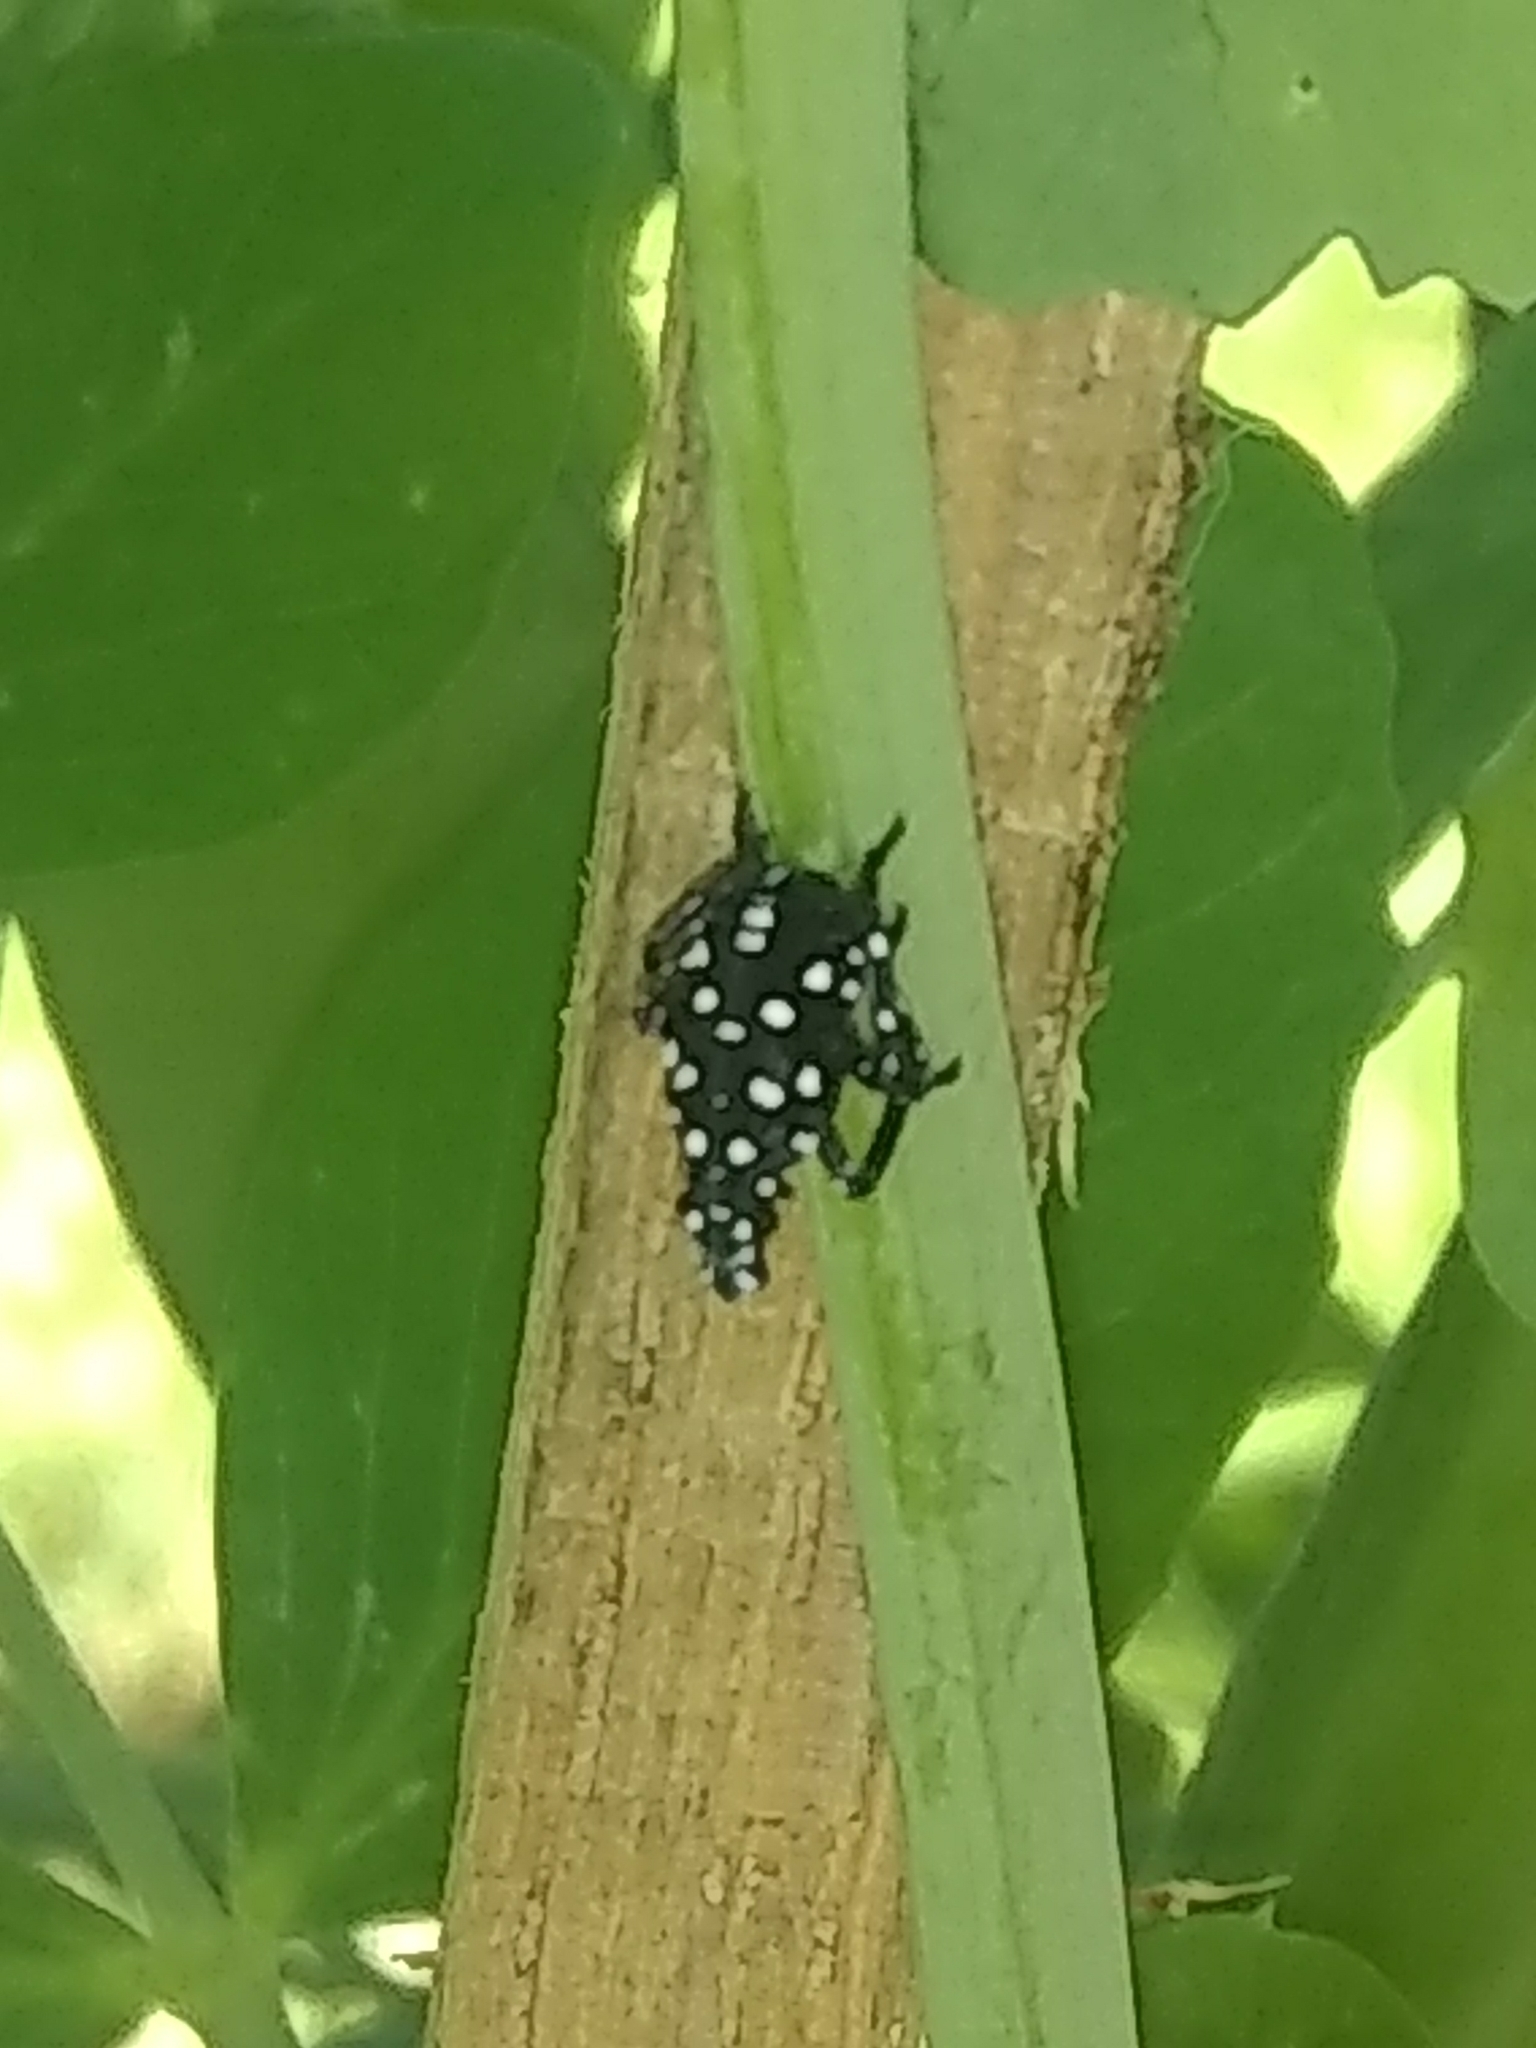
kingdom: Animalia
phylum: Arthropoda
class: Insecta
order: Hemiptera
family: Fulgoridae
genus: Lycorma
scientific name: Lycorma delicatula
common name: Spotted lanternfly
